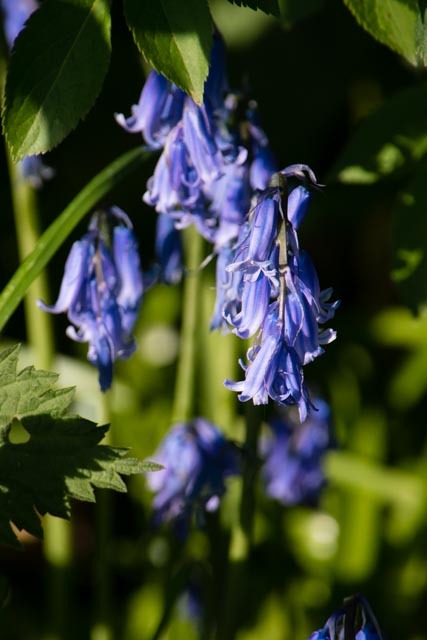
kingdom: Plantae
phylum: Tracheophyta
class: Liliopsida
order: Asparagales
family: Asparagaceae
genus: Hyacinthoides
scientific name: Hyacinthoides non-scripta
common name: Bluebell
